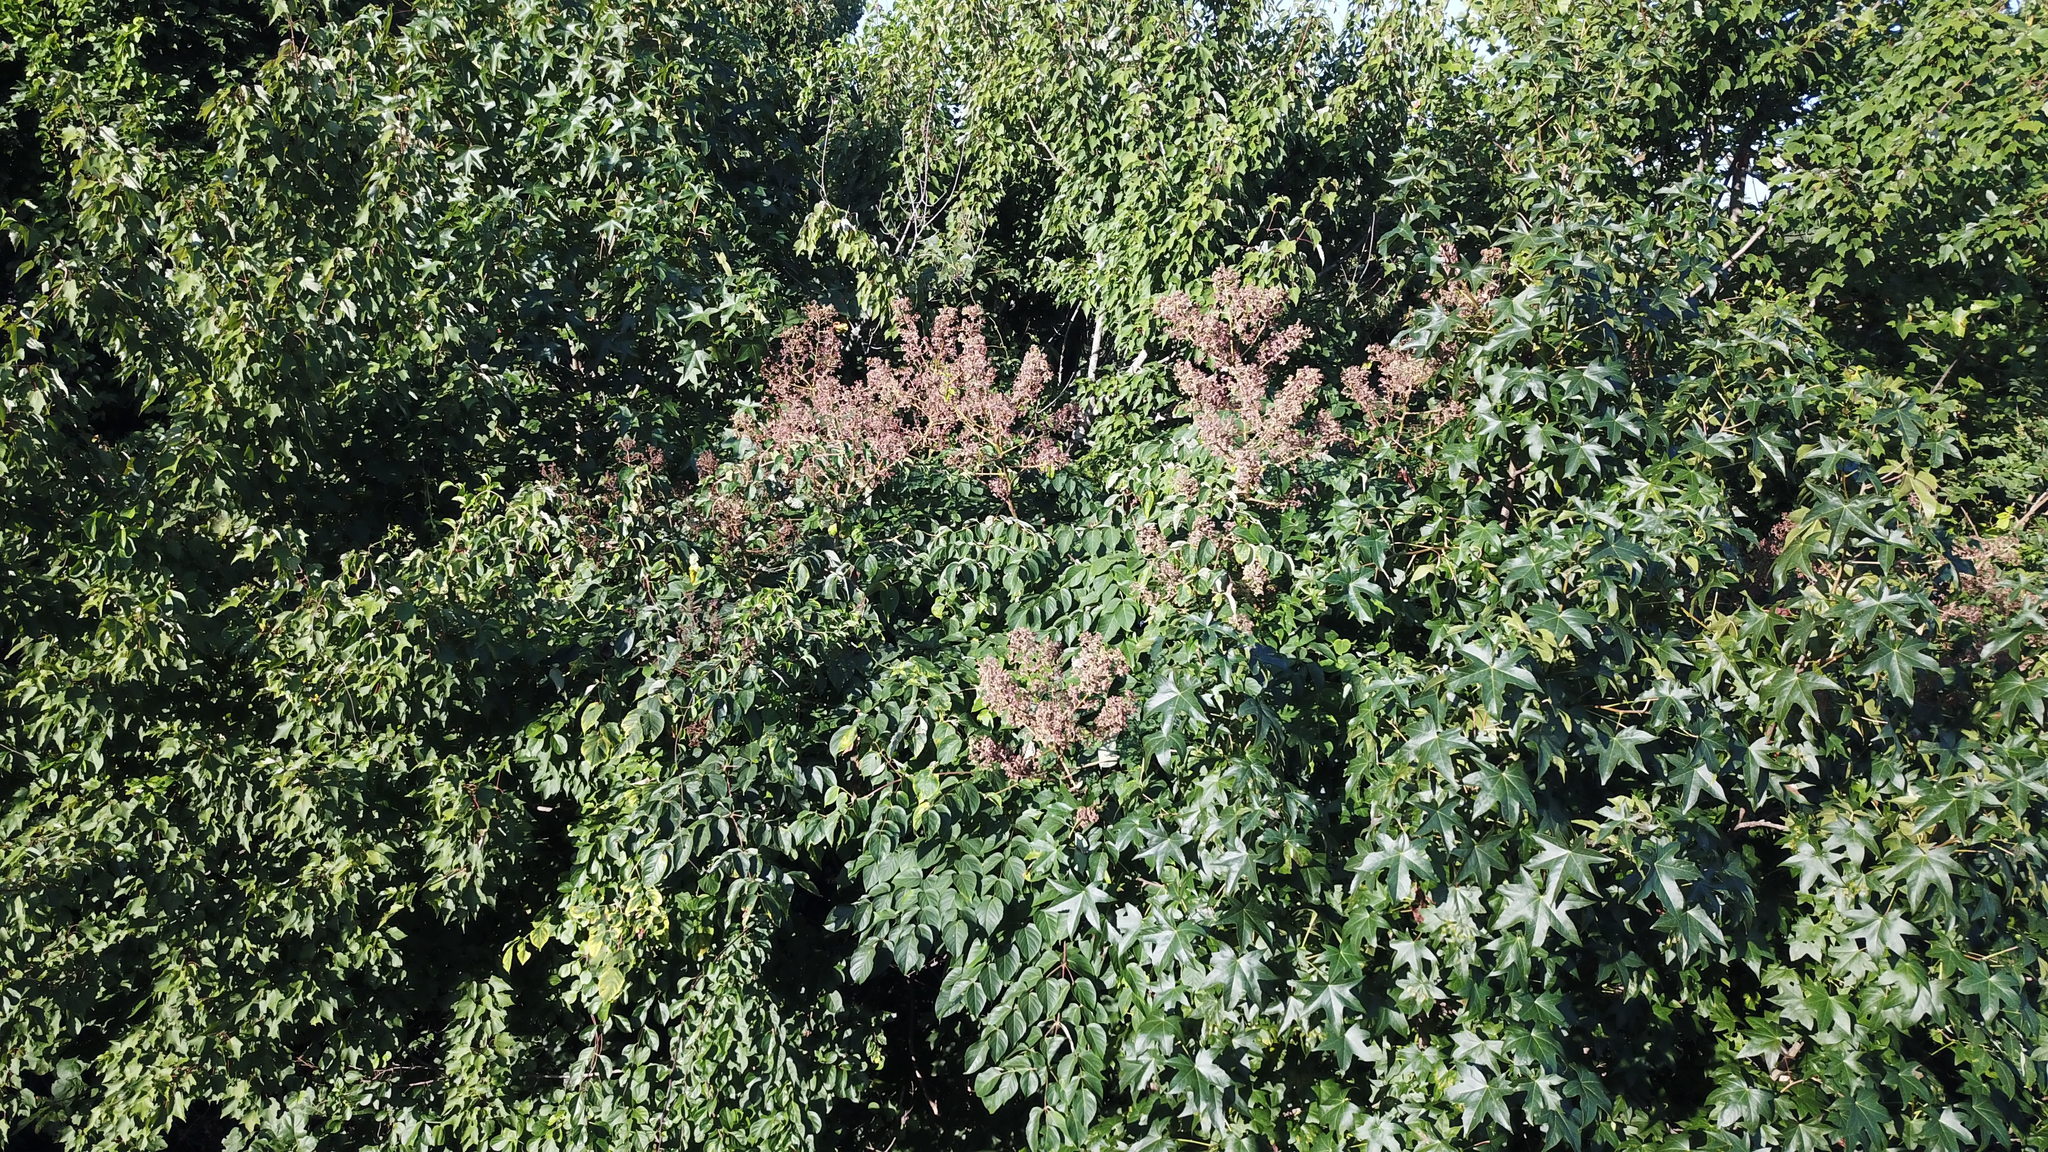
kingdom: Plantae
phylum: Tracheophyta
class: Magnoliopsida
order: Apiales
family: Araliaceae
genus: Aralia
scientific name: Aralia spinosa
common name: Hercules'-club
